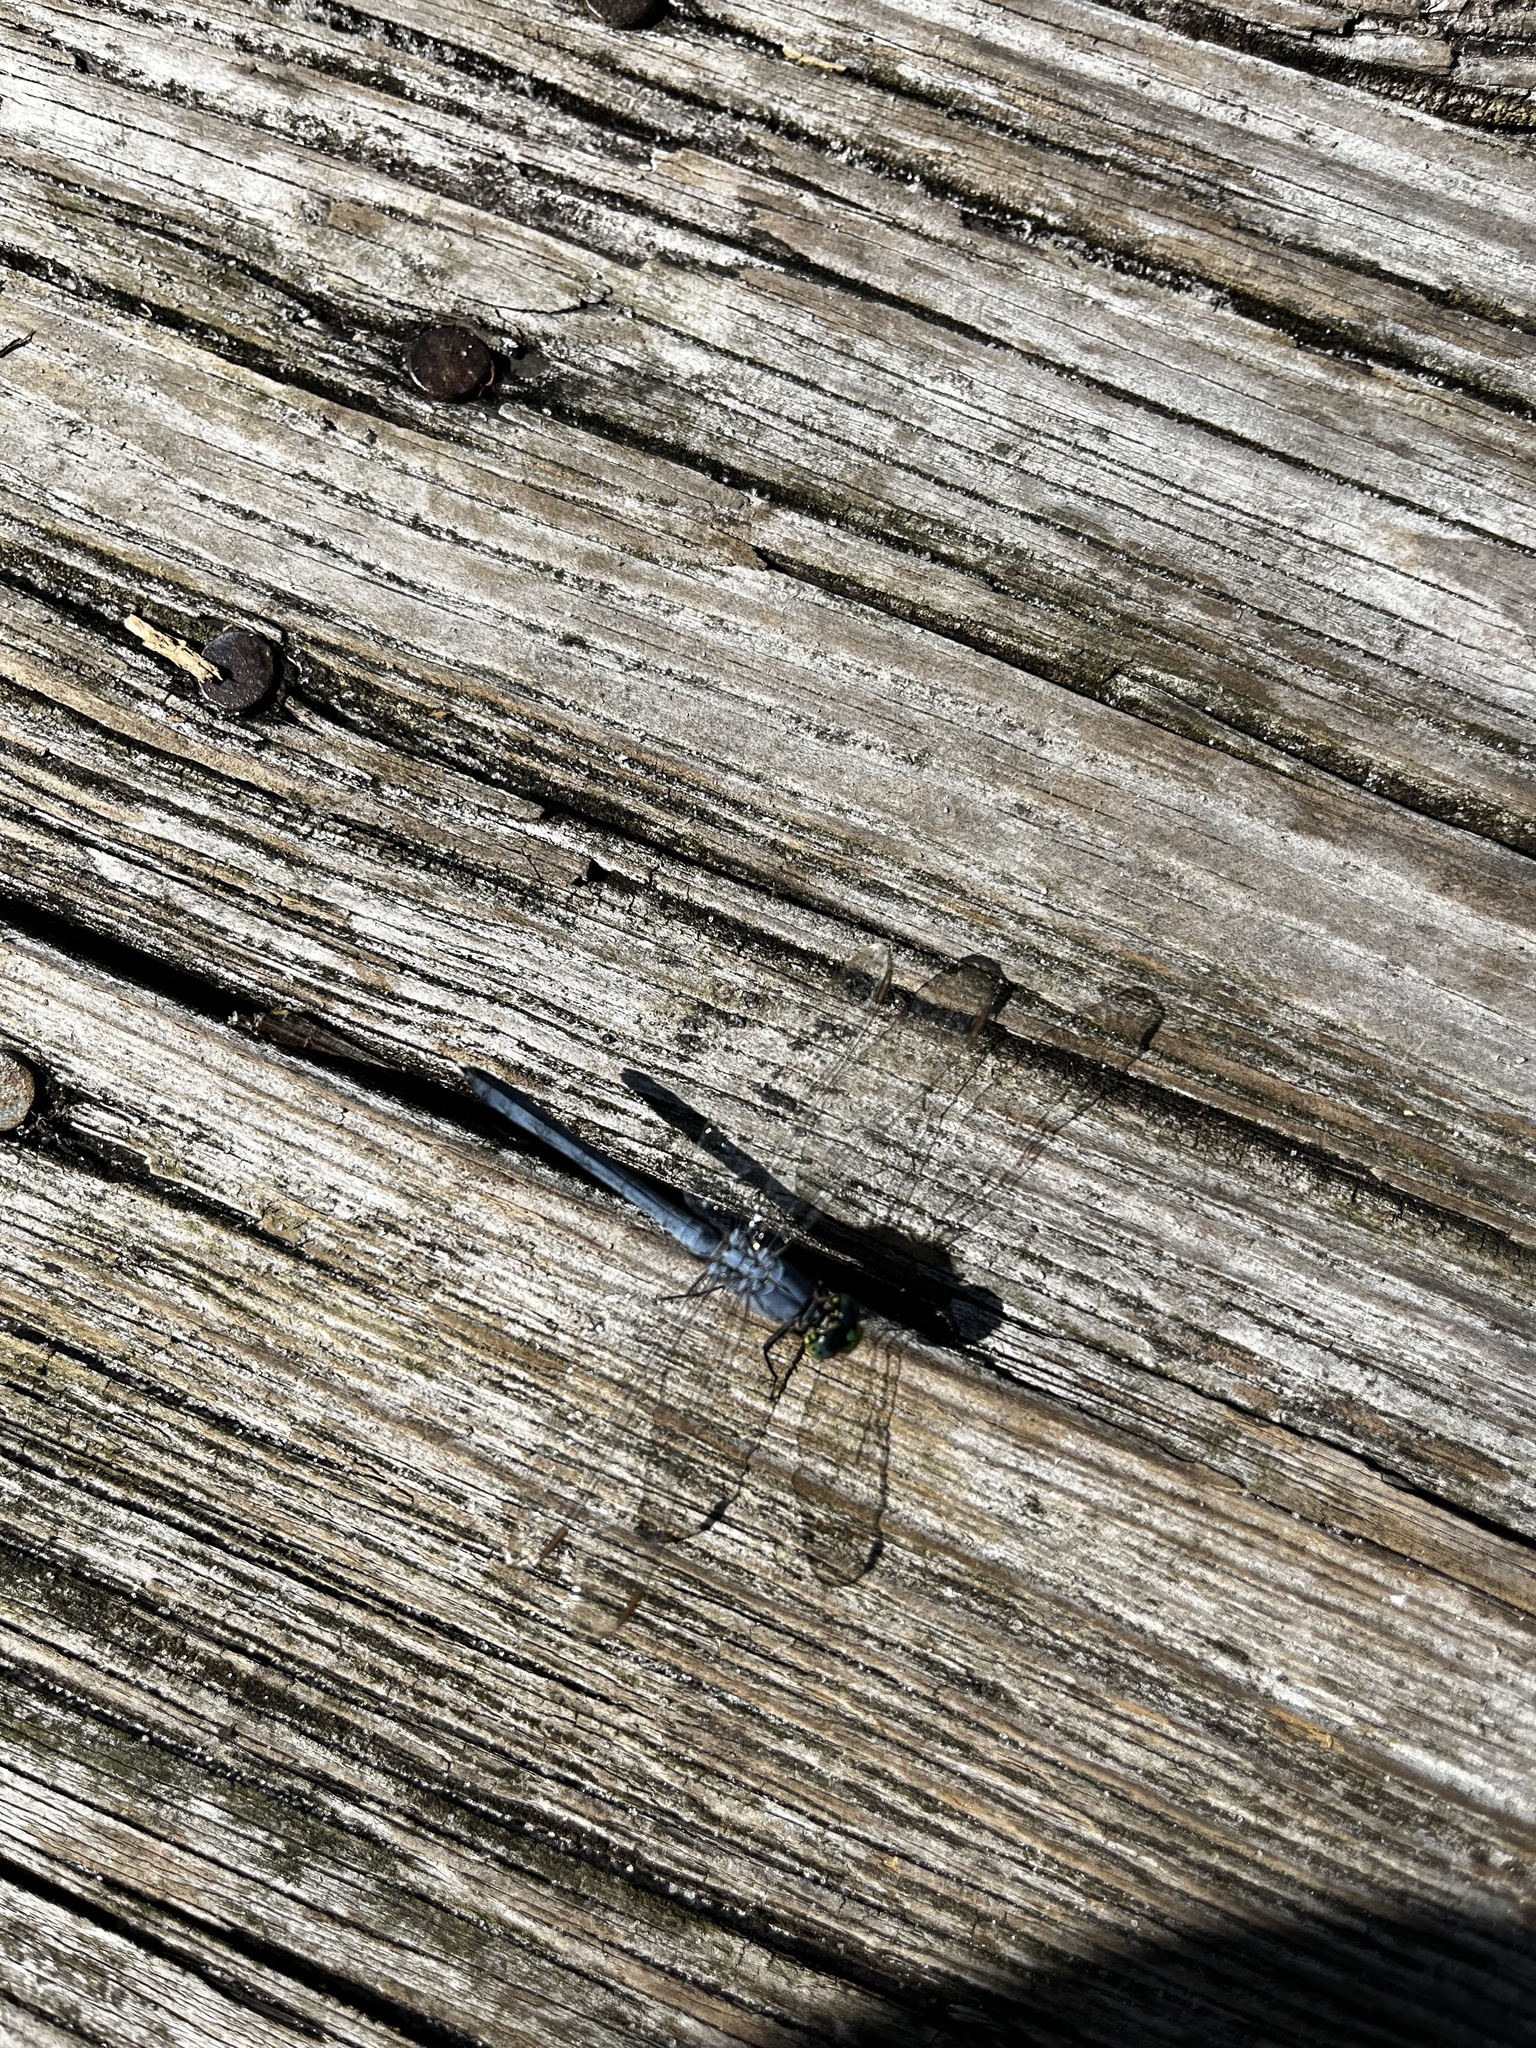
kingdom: Animalia
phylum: Arthropoda
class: Insecta
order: Odonata
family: Libellulidae
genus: Erythemis
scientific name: Erythemis simplicicollis
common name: Eastern pondhawk
